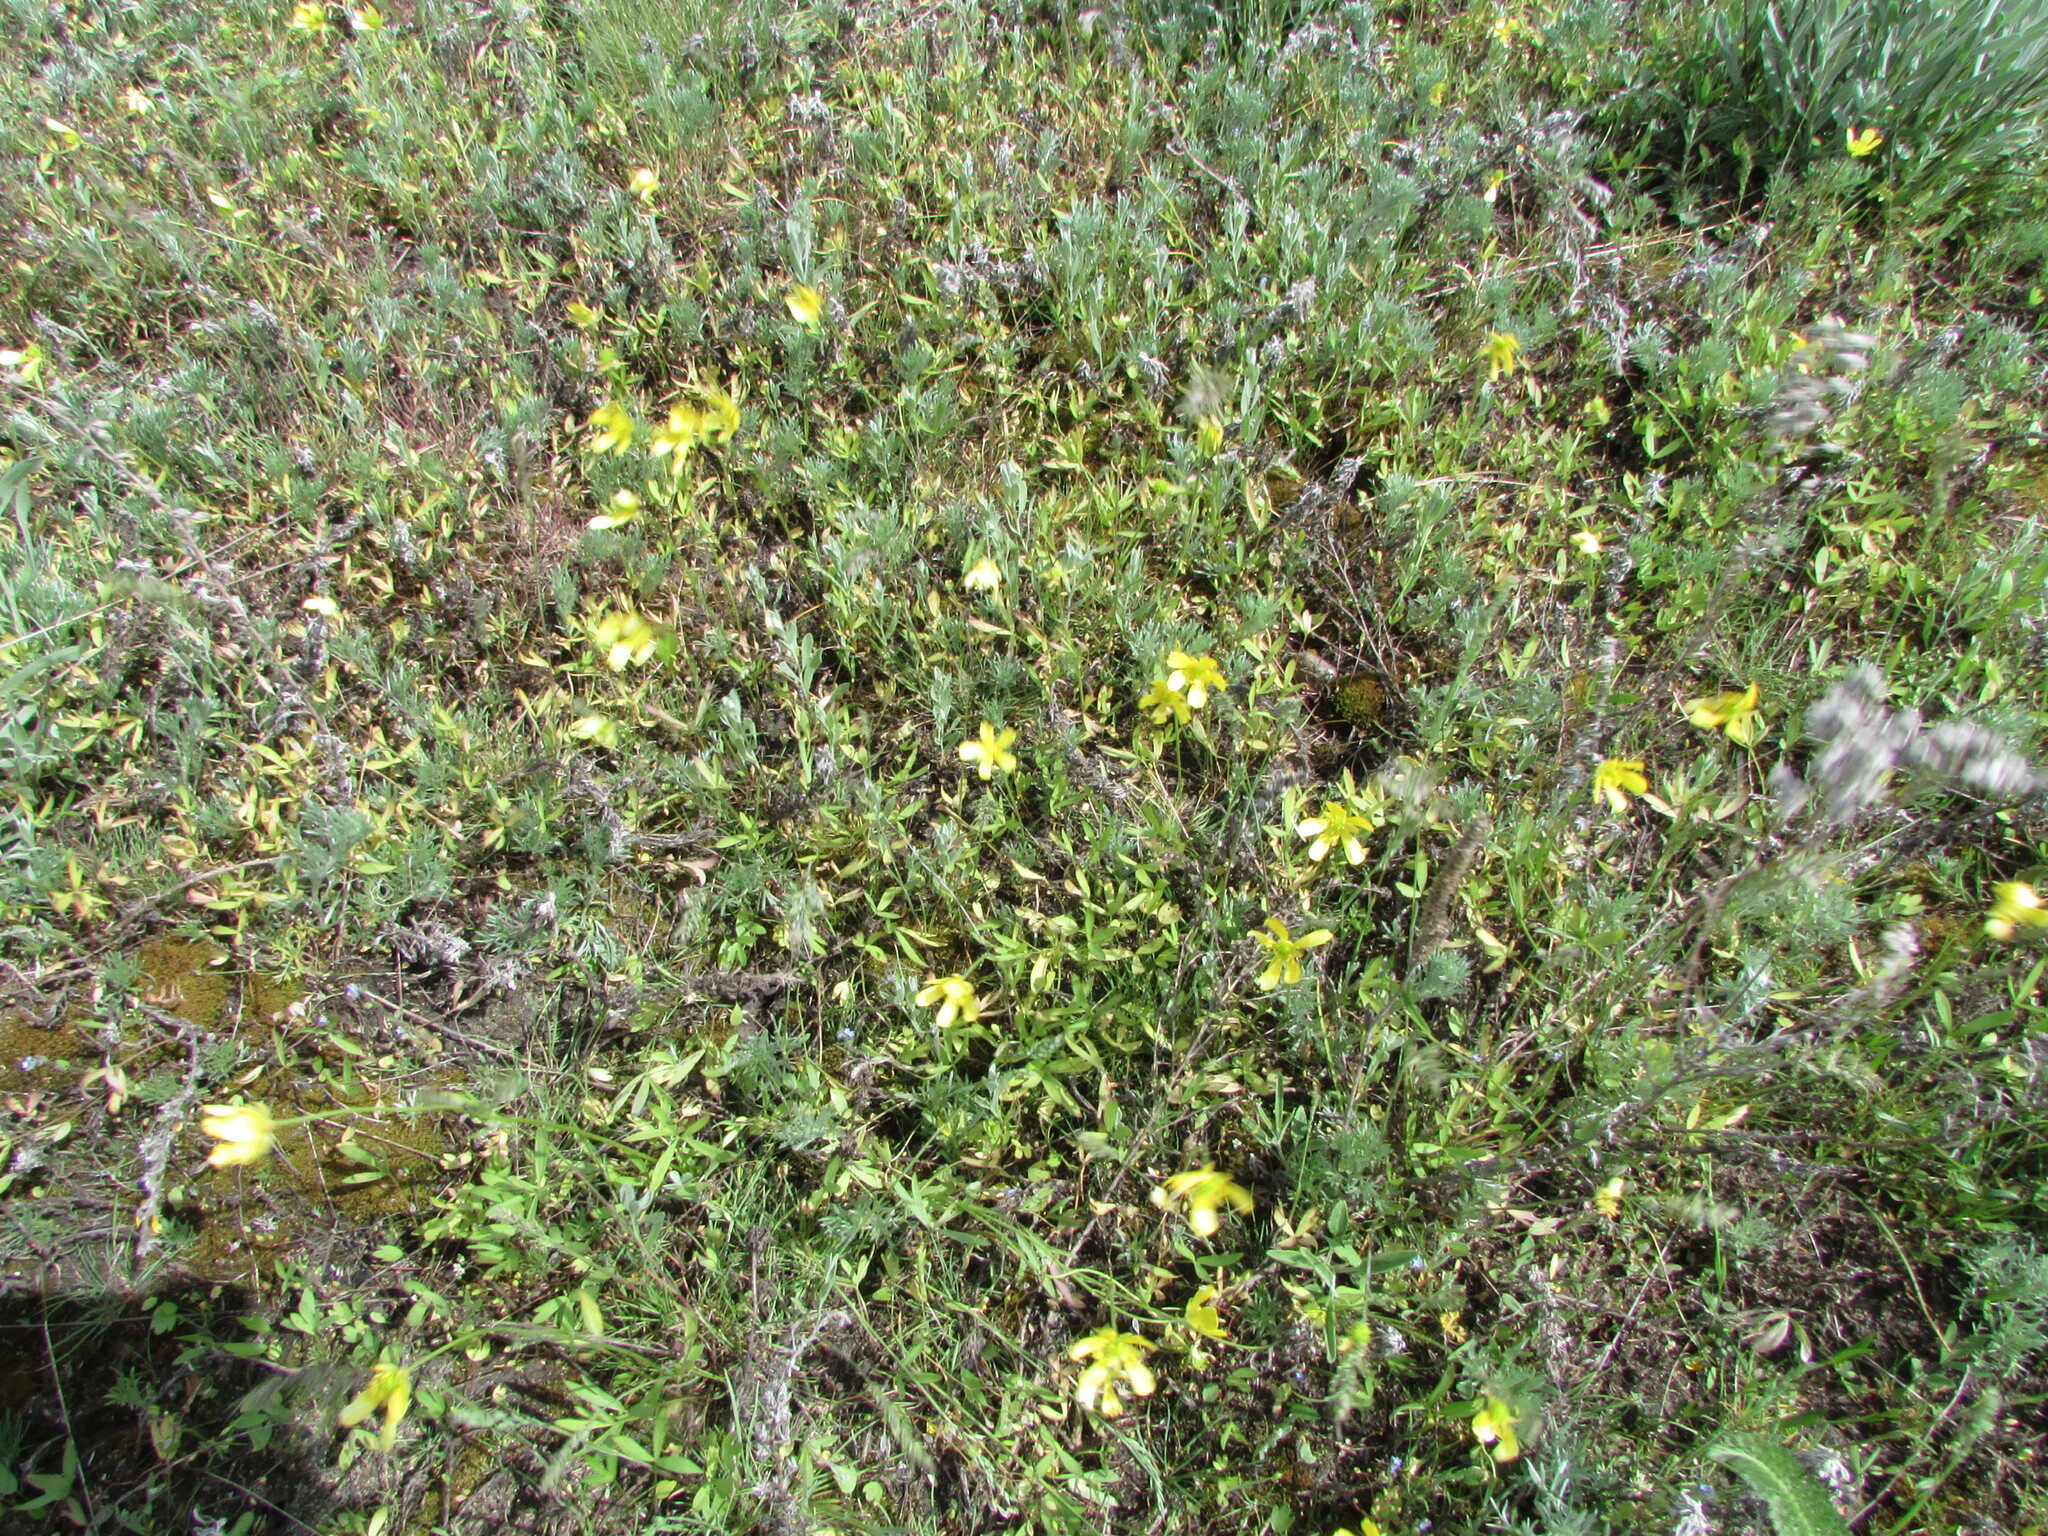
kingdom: Plantae
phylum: Tracheophyta
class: Magnoliopsida
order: Ranunculales
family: Ranunculaceae
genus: Ranunculus
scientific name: Ranunculus pedatus
